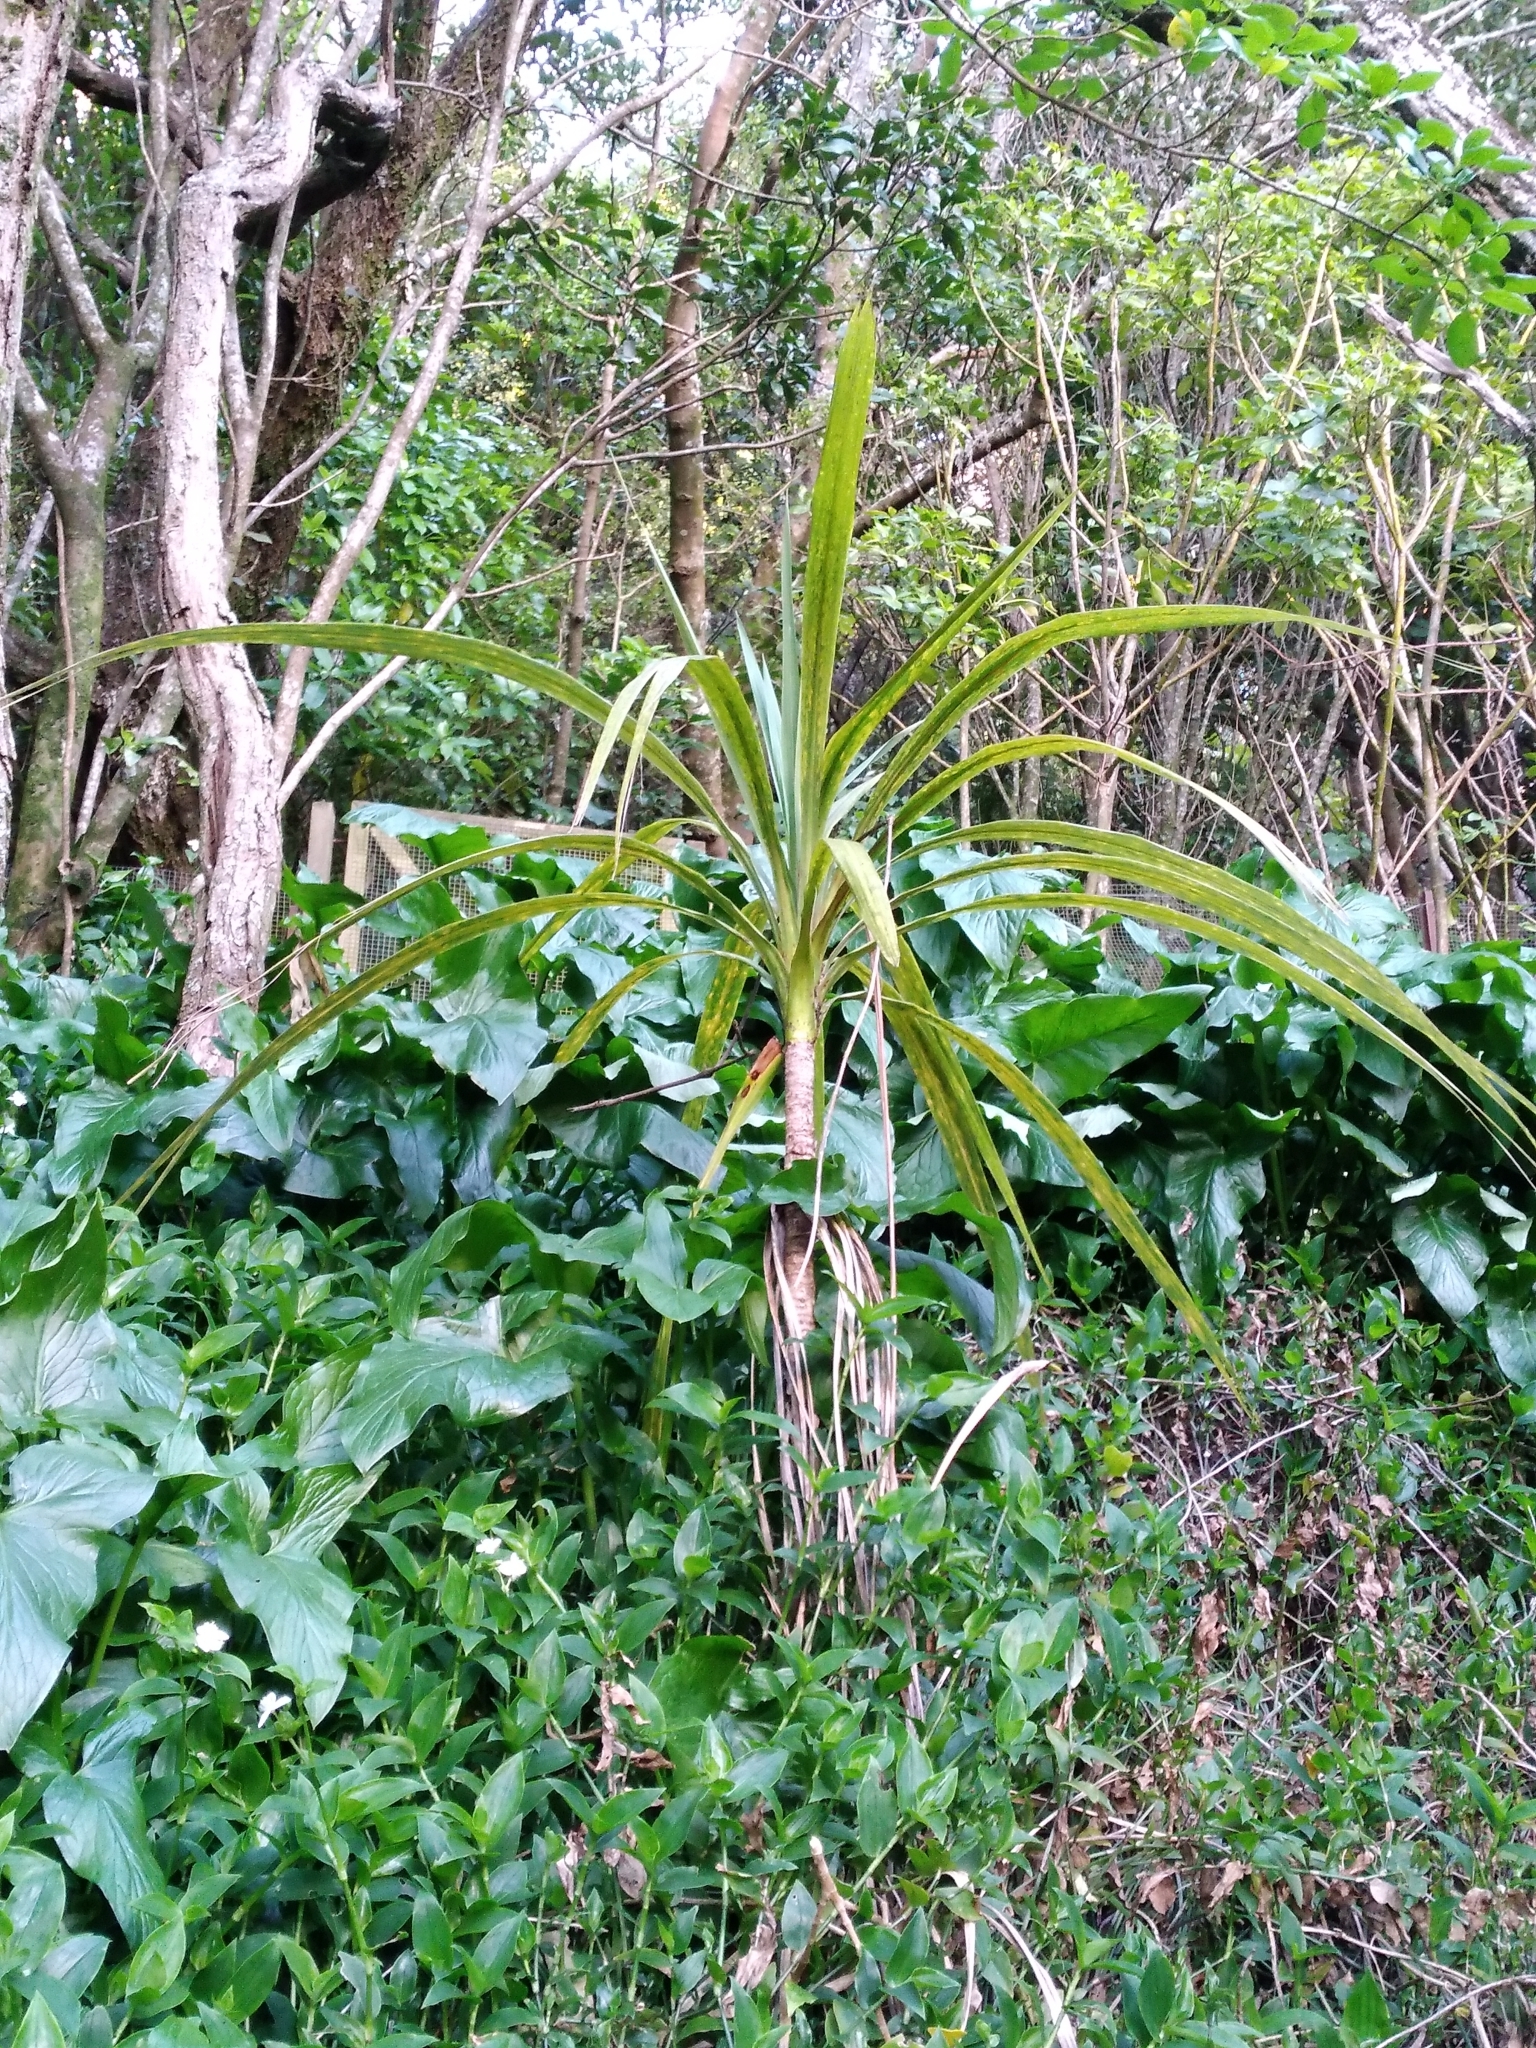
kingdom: Plantae
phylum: Tracheophyta
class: Liliopsida
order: Asparagales
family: Asparagaceae
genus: Cordyline
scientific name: Cordyline australis
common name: Cabbage-palm
